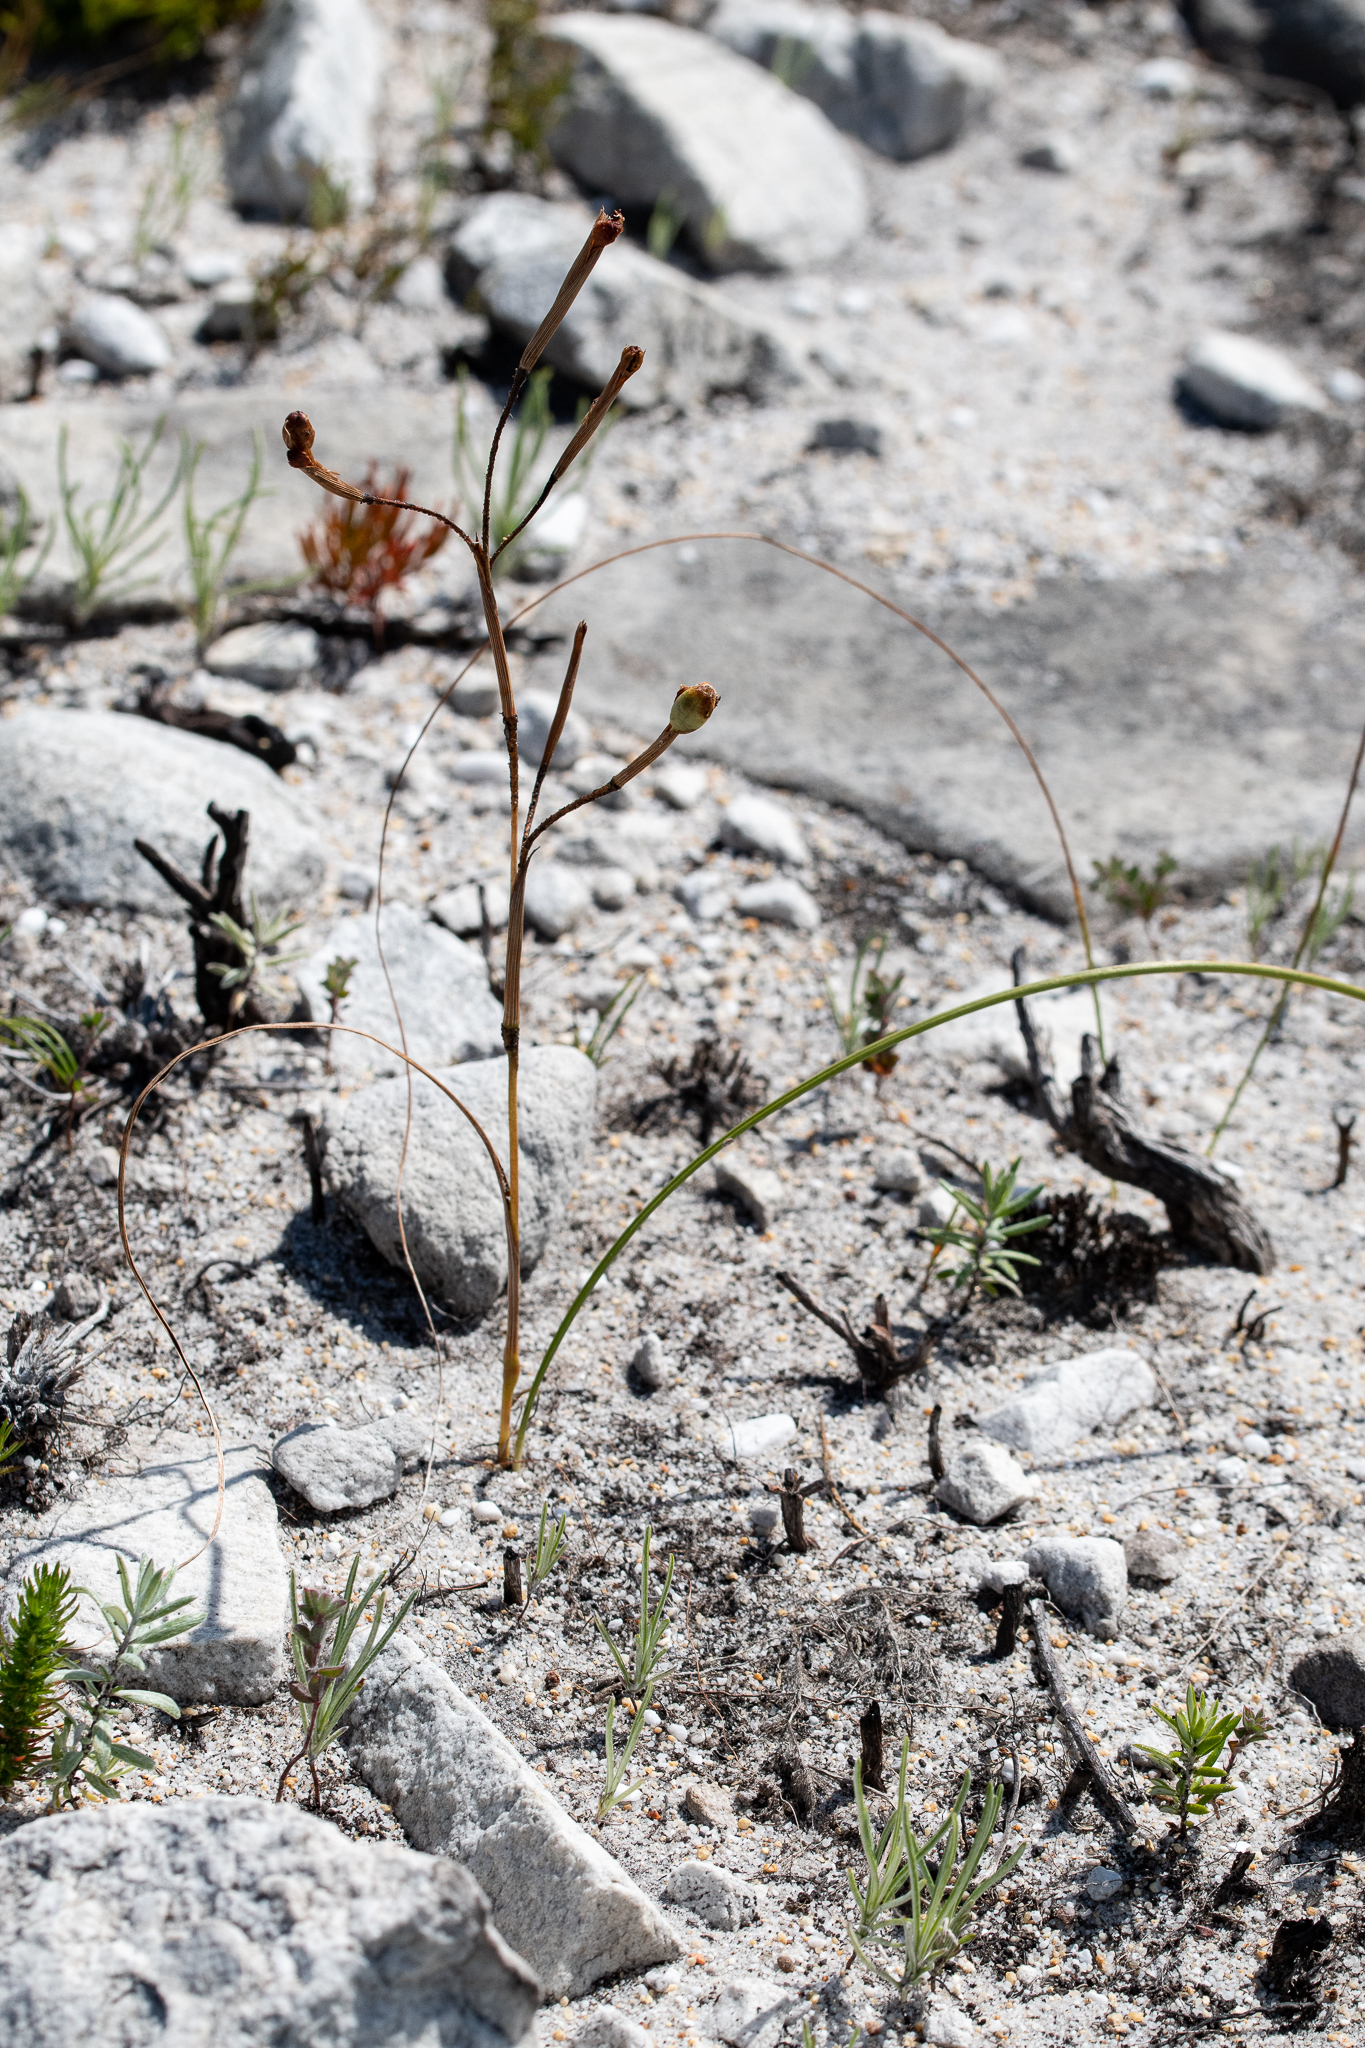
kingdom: Plantae
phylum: Tracheophyta
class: Liliopsida
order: Asparagales
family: Amaryllidaceae
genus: Cyrtanthus
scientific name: Cyrtanthus leucanthus
